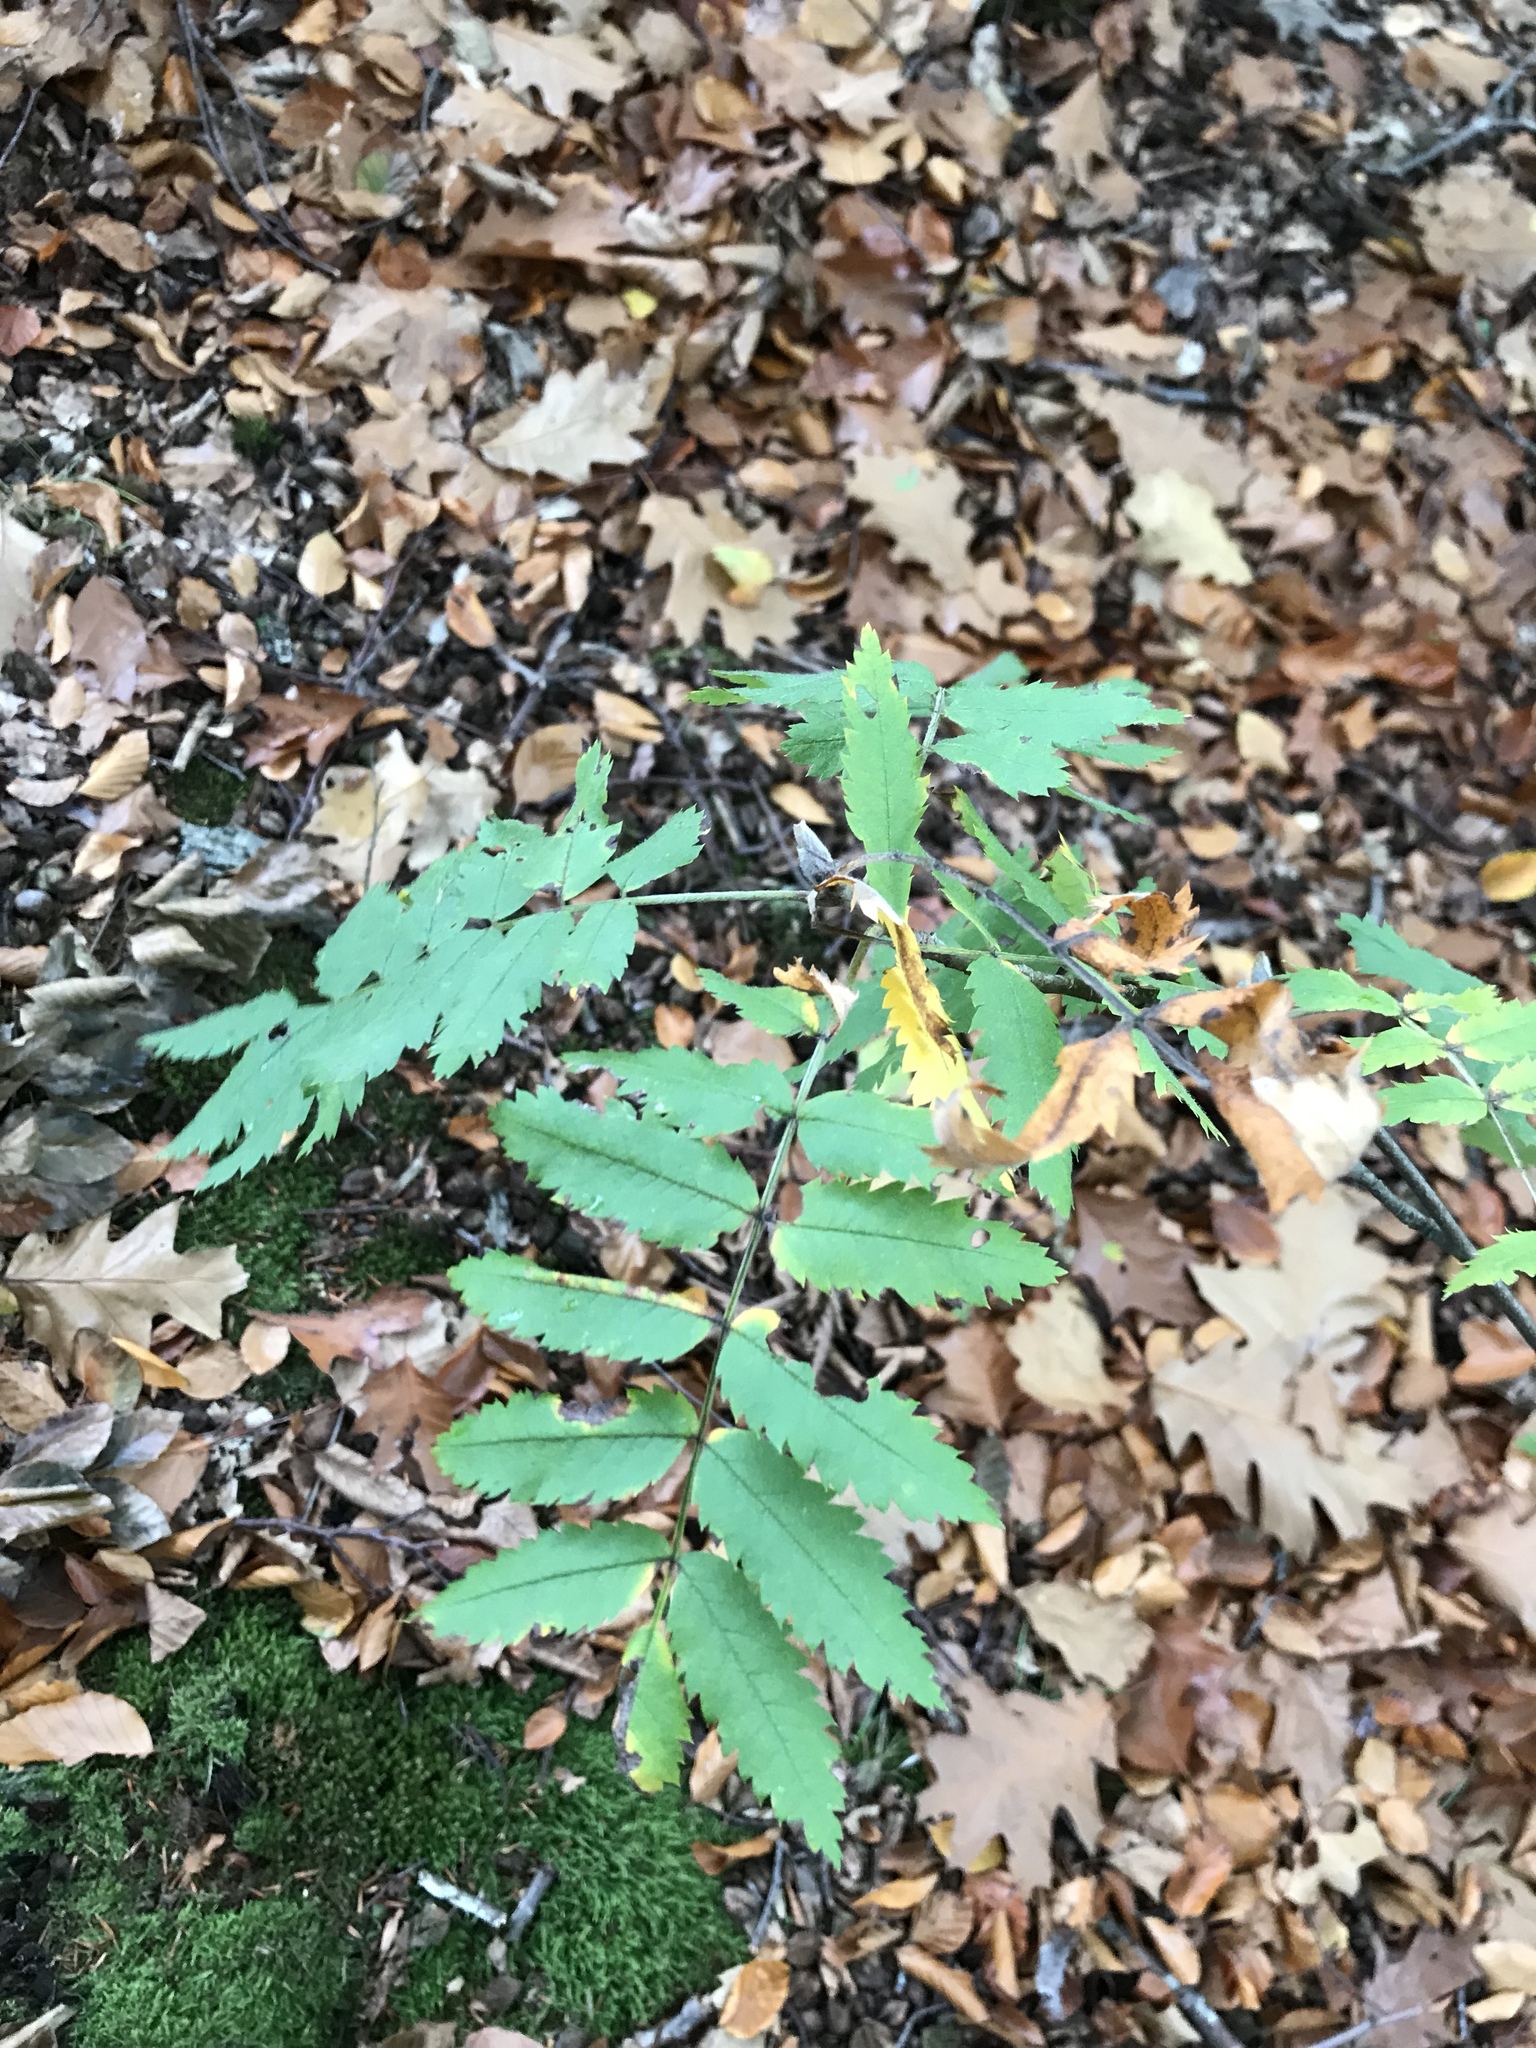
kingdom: Plantae
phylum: Tracheophyta
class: Magnoliopsida
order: Rosales
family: Rosaceae
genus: Sorbus
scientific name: Sorbus aucuparia
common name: Rowan
